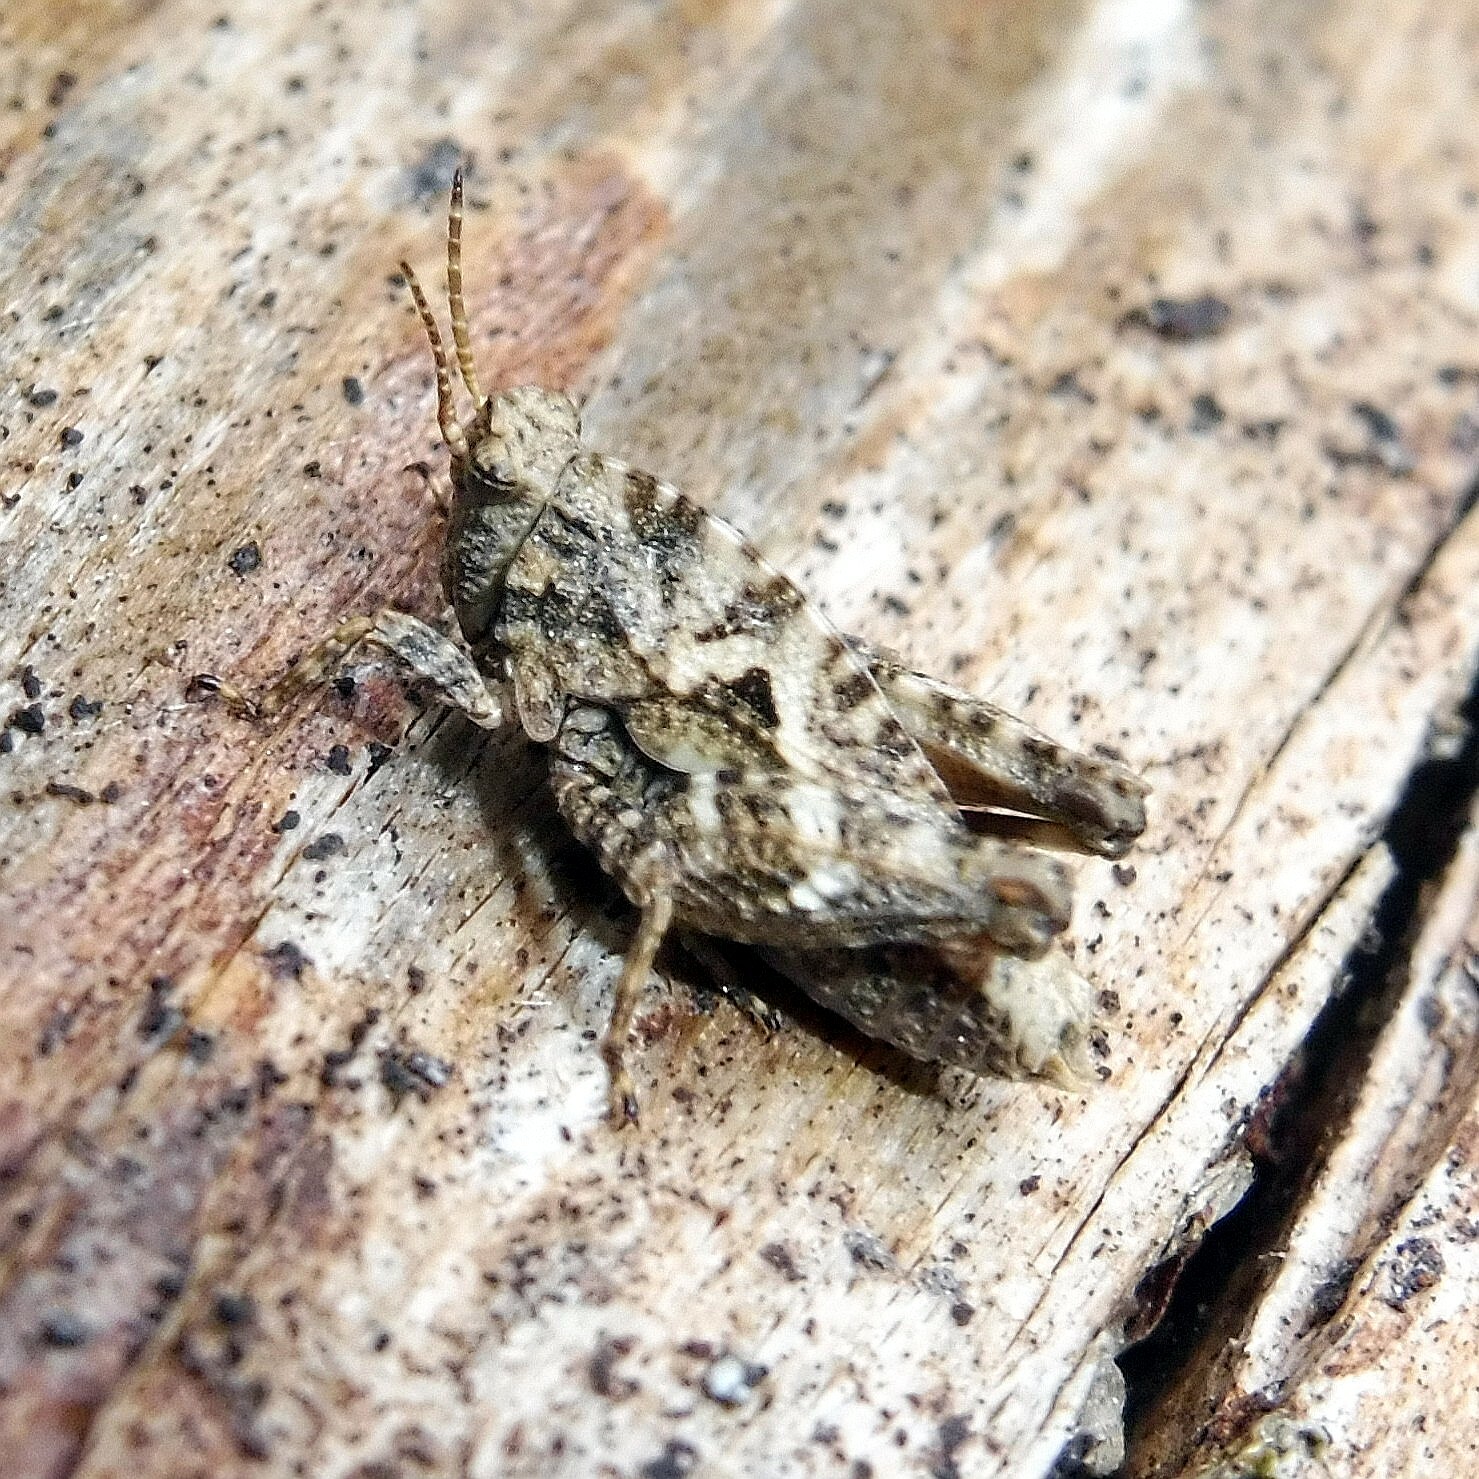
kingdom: Animalia
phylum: Arthropoda
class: Insecta
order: Orthoptera
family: Tetrigidae
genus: Tetrix
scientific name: Tetrix undulata
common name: Common groundhopper
